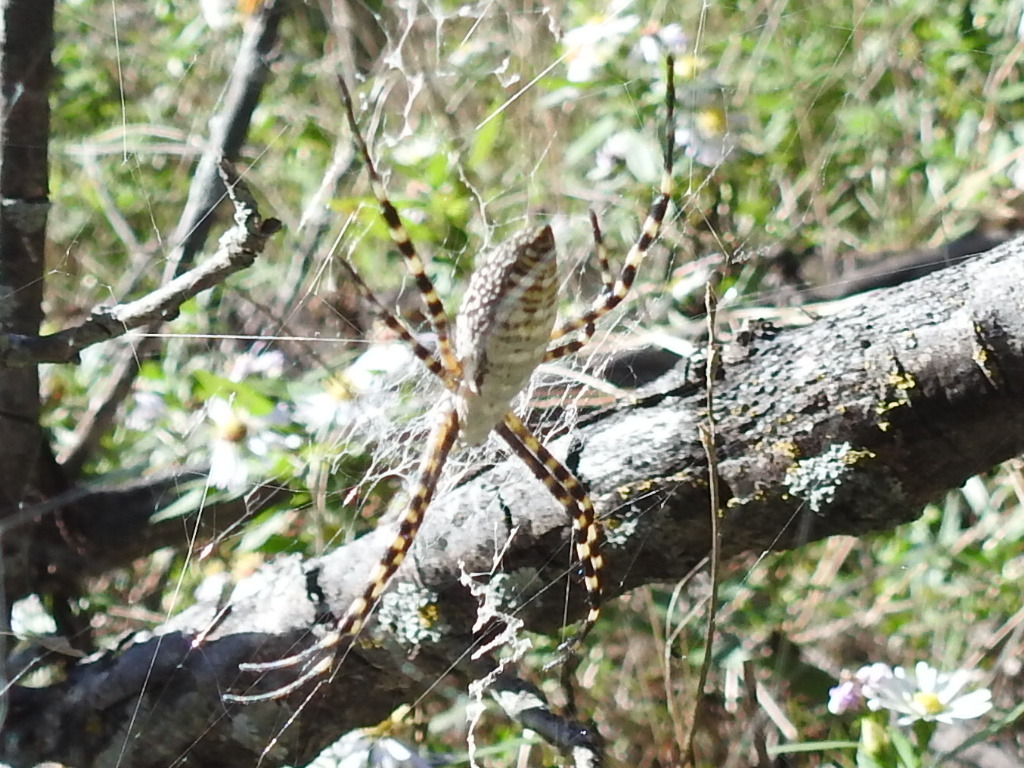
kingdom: Animalia
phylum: Arthropoda
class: Arachnida
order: Araneae
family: Araneidae
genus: Argiope
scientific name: Argiope trifasciata
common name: Banded garden spider
